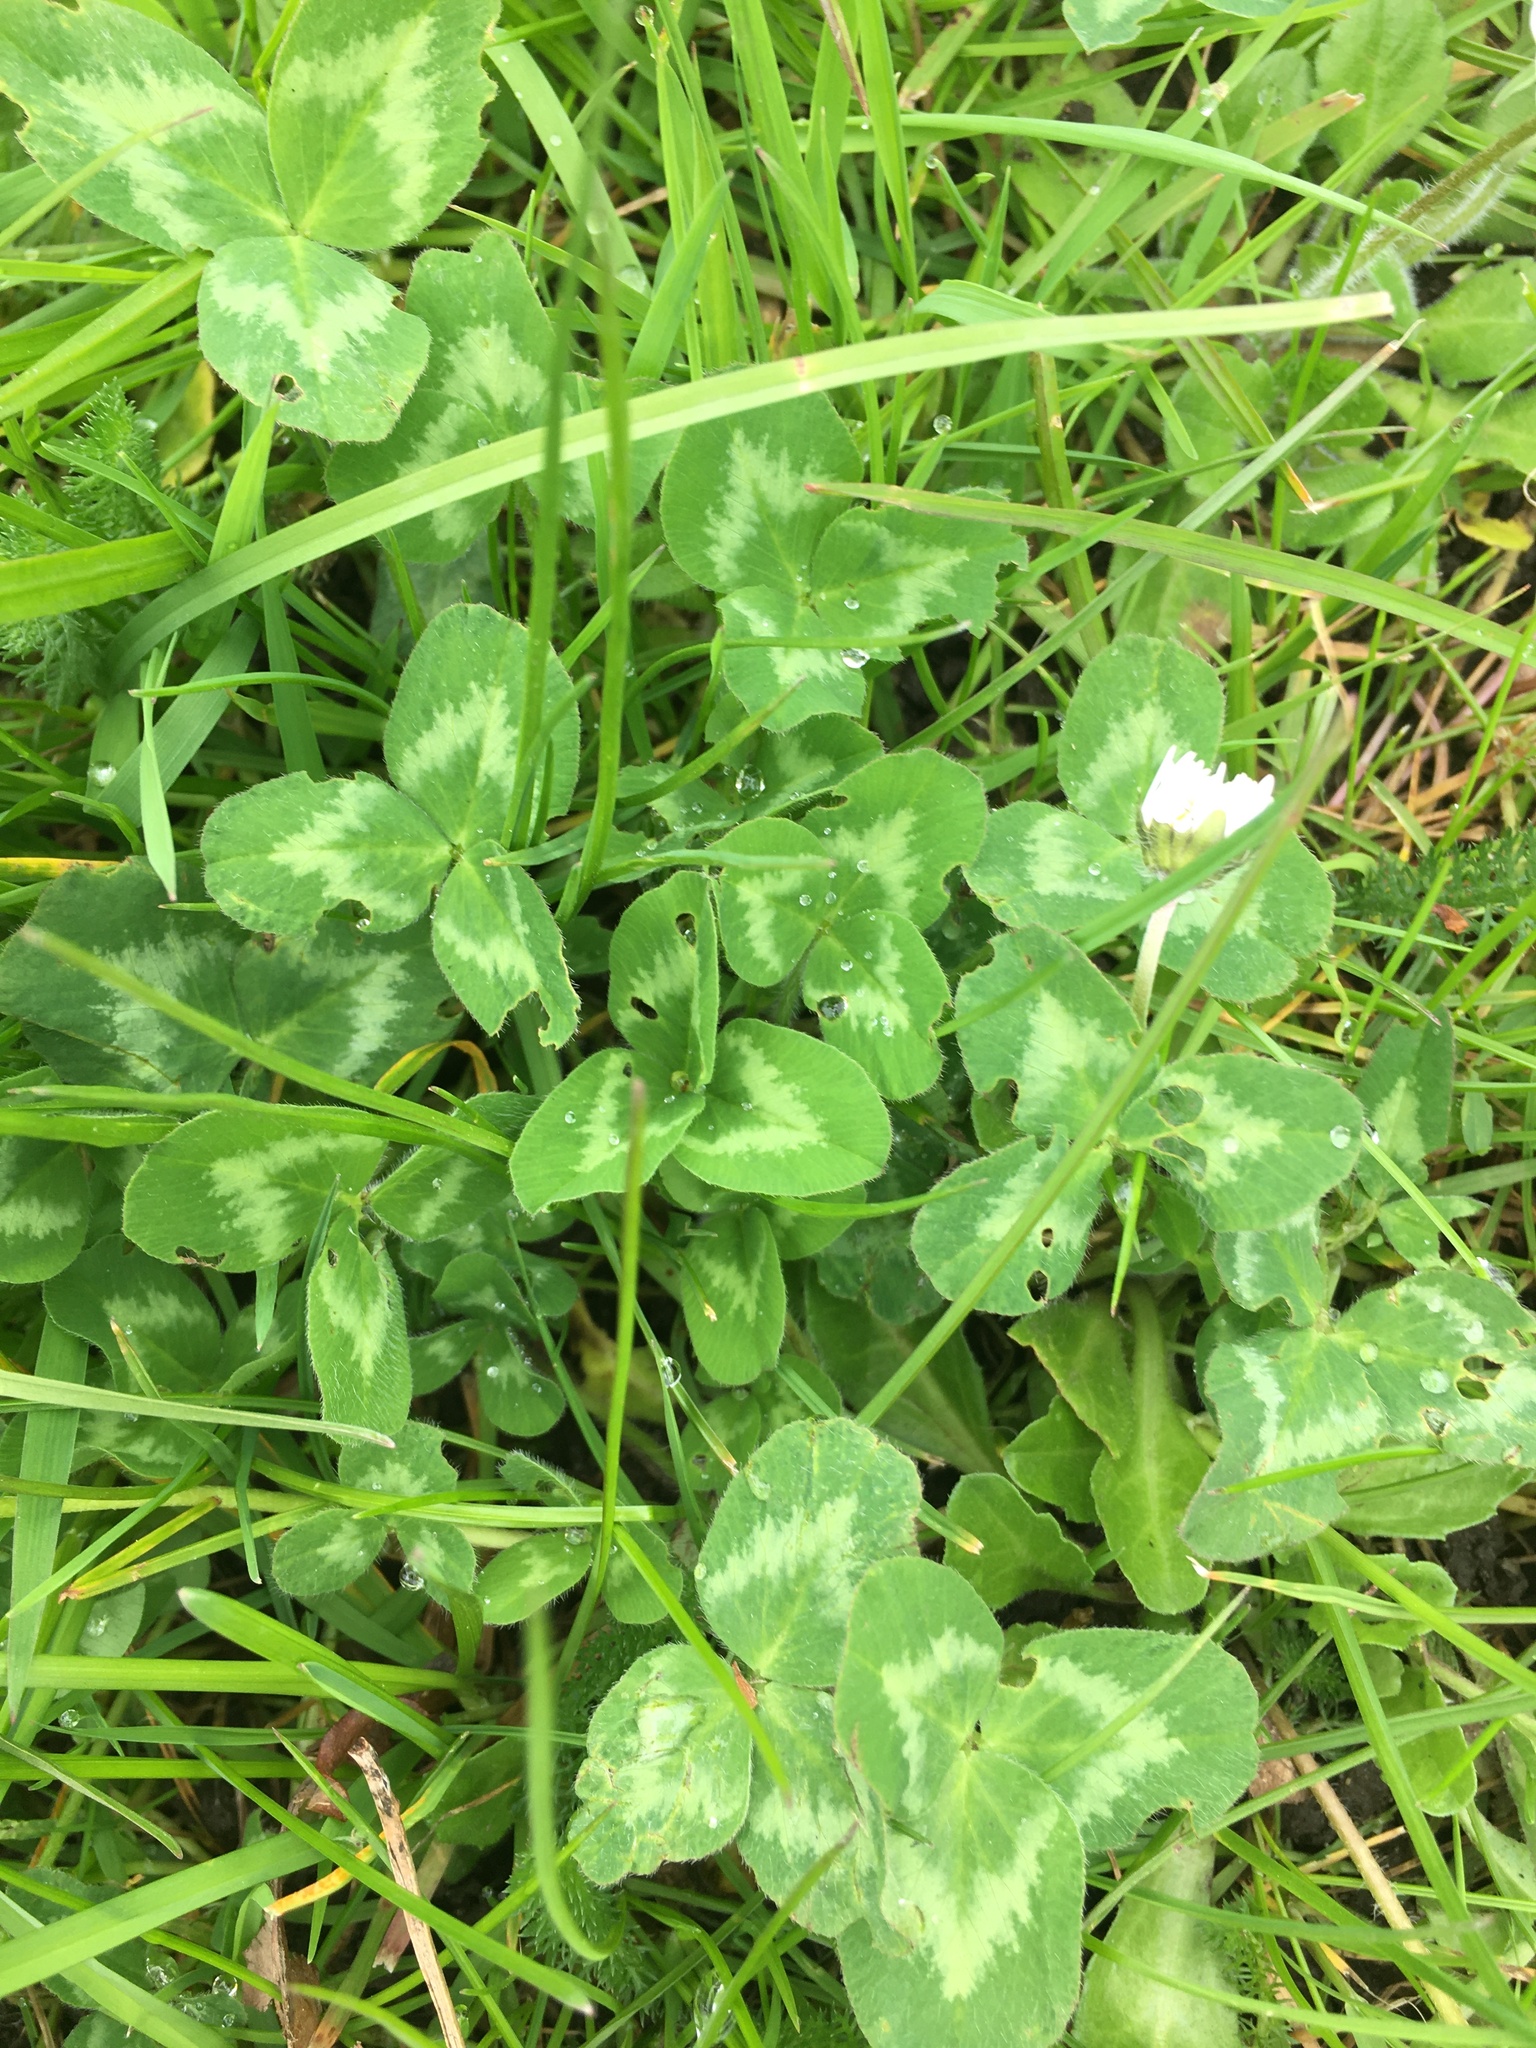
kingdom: Plantae
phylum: Tracheophyta
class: Magnoliopsida
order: Fabales
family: Fabaceae
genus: Trifolium
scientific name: Trifolium pratense
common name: Red clover
